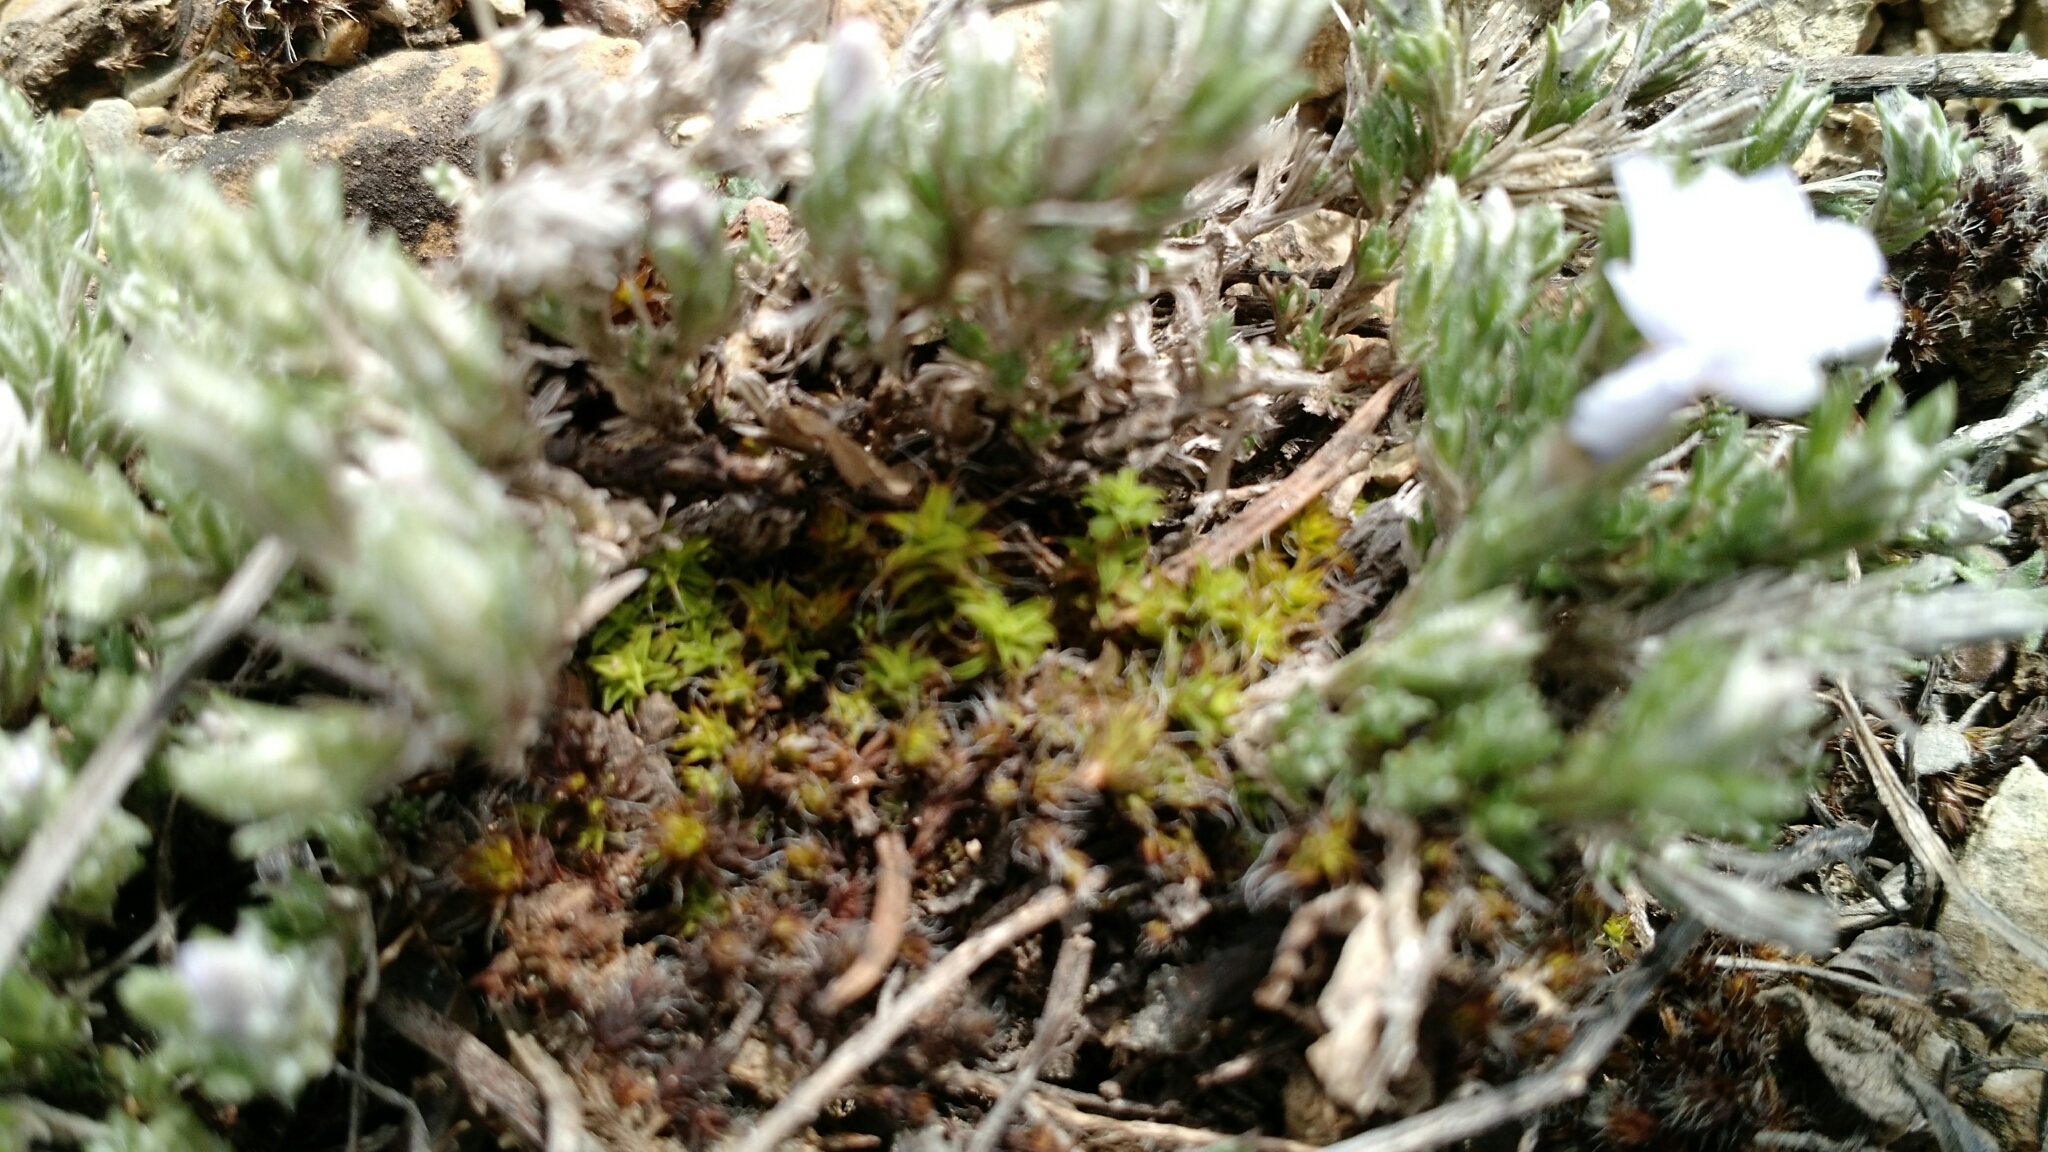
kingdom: Plantae
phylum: Tracheophyta
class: Magnoliopsida
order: Ericales
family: Polemoniaceae
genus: Phlox
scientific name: Phlox hoodii
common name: Moss phlox
